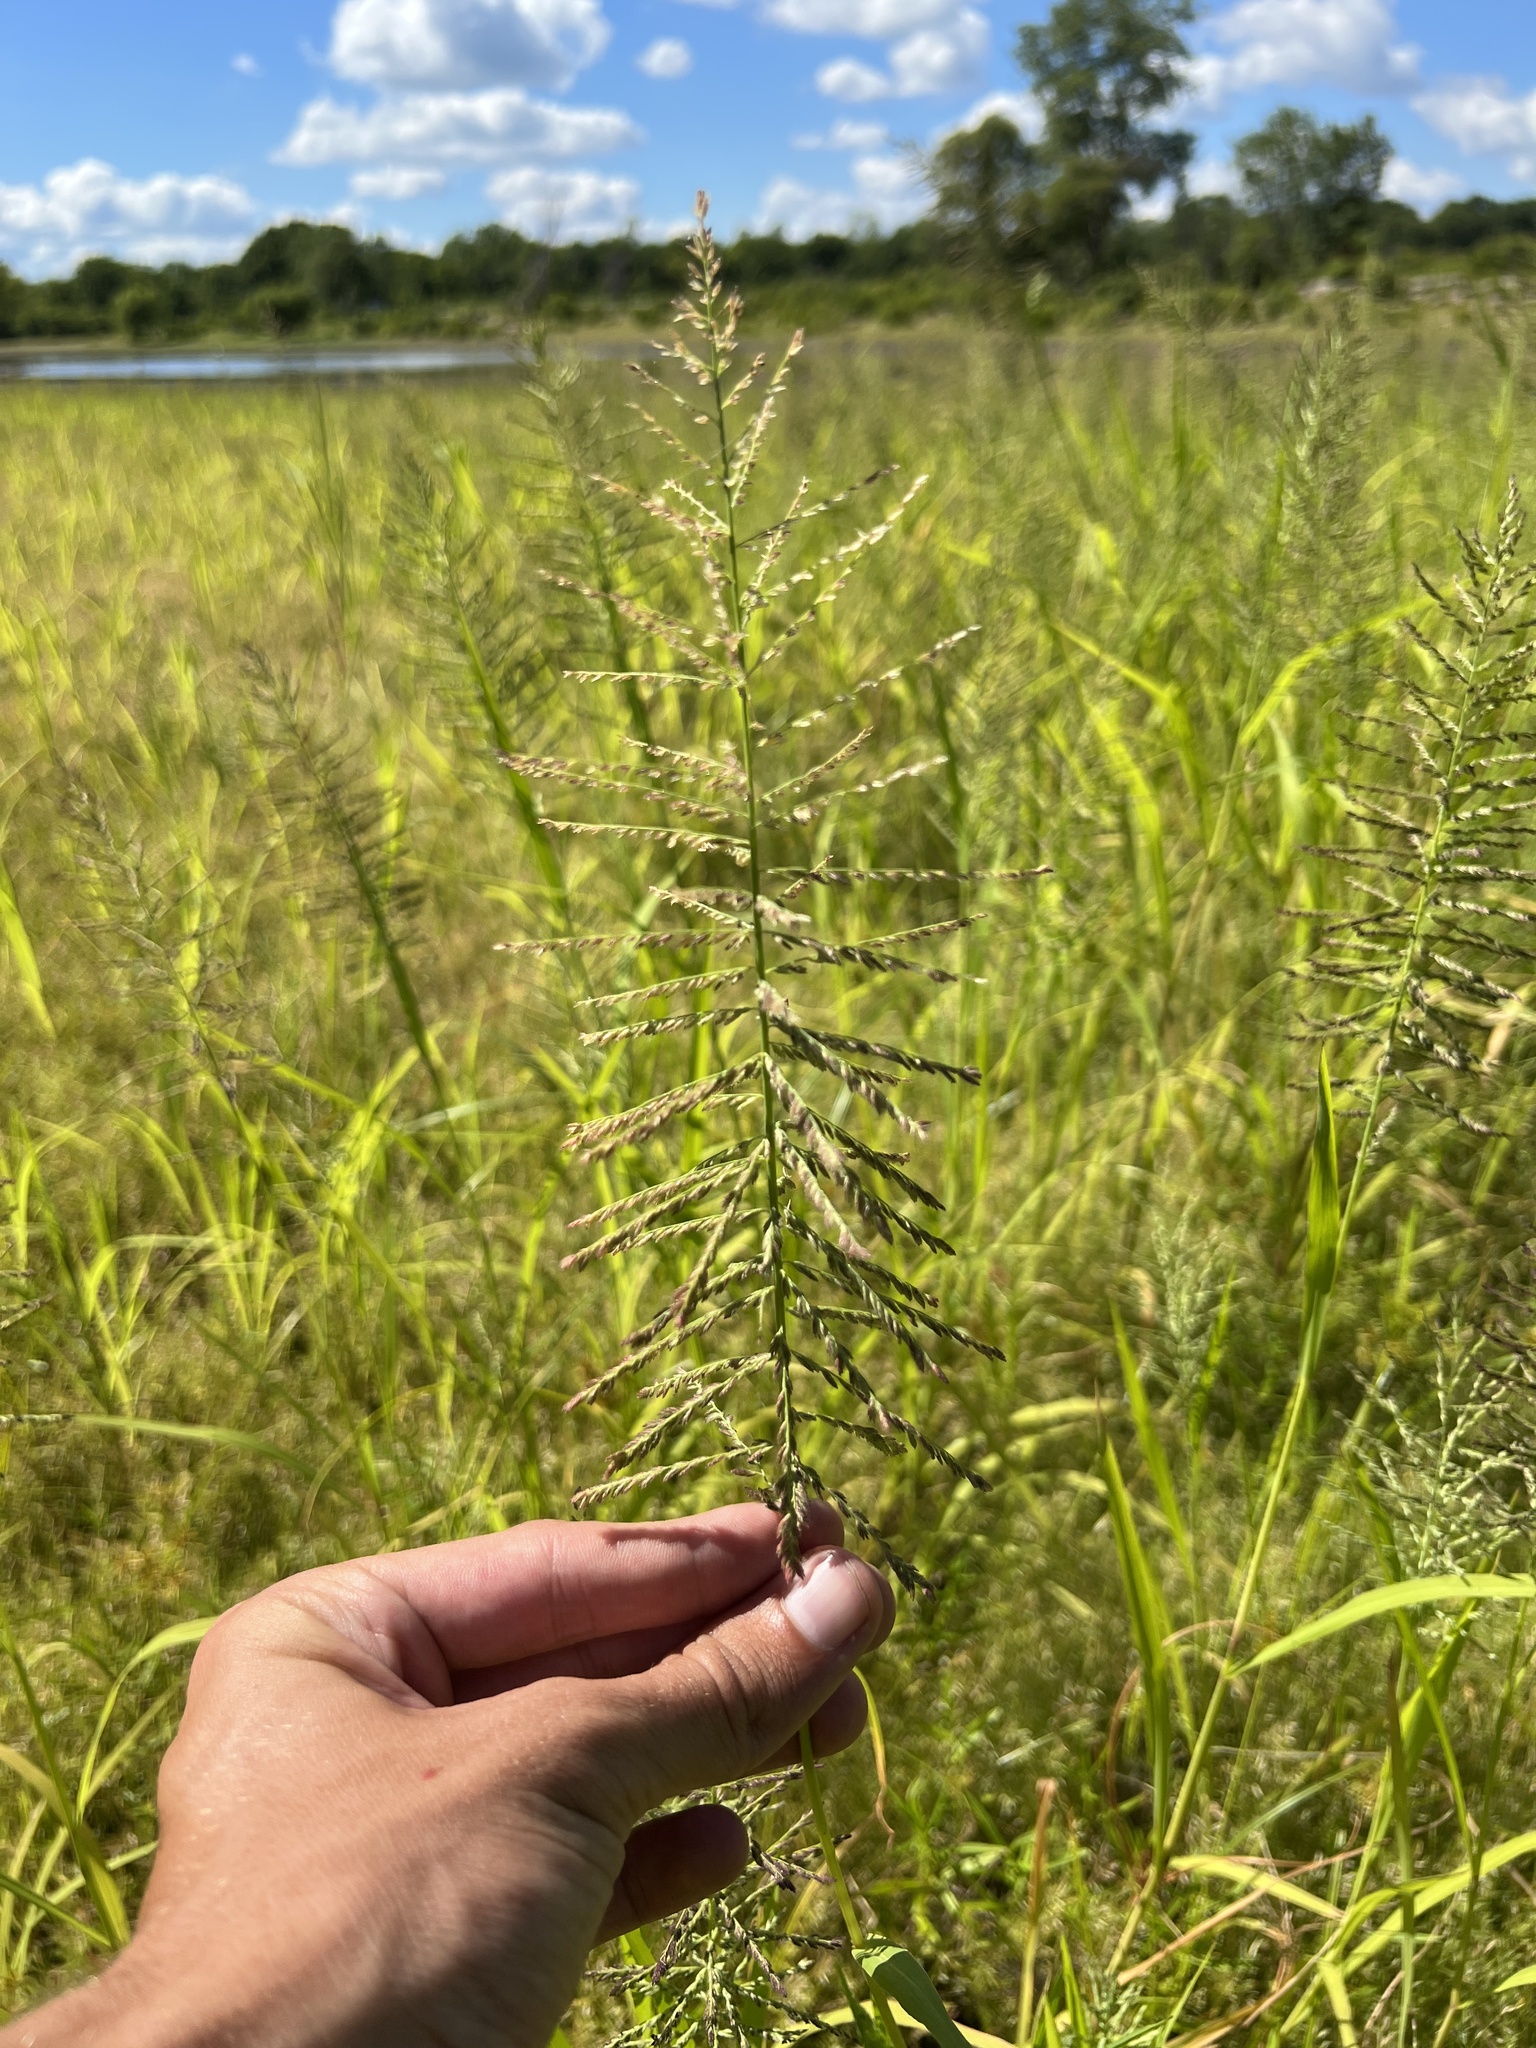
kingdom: Plantae
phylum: Tracheophyta
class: Liliopsida
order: Poales
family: Poaceae
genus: Leptochloa
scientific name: Leptochloa panicoides
